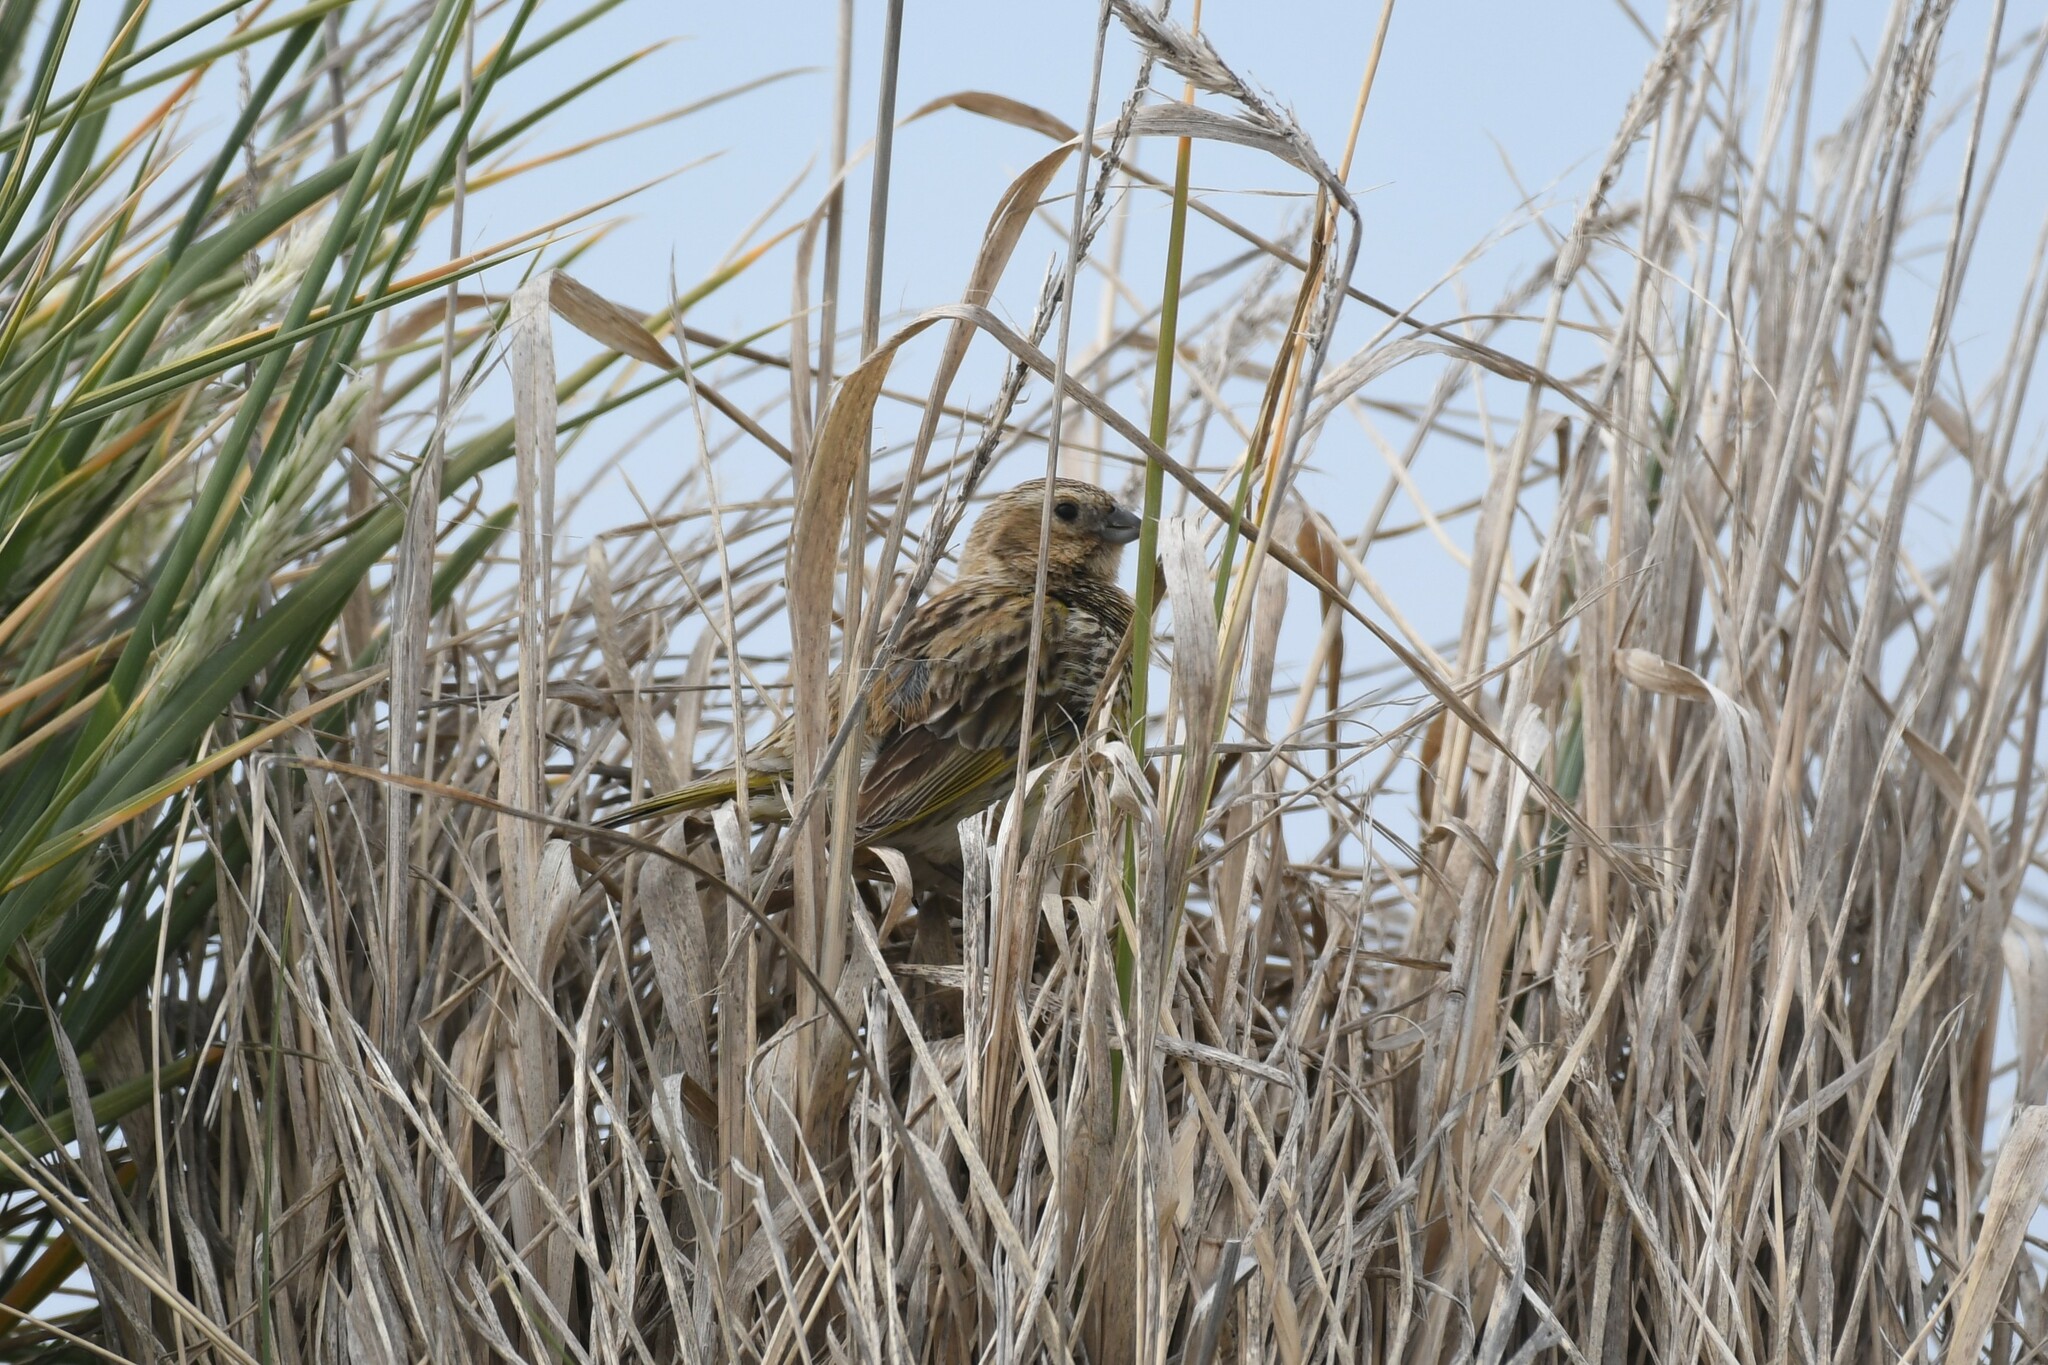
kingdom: Animalia
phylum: Chordata
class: Aves
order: Passeriformes
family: Thraupidae
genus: Melanodera
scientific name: Melanodera melanodera
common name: White-bridled finch
